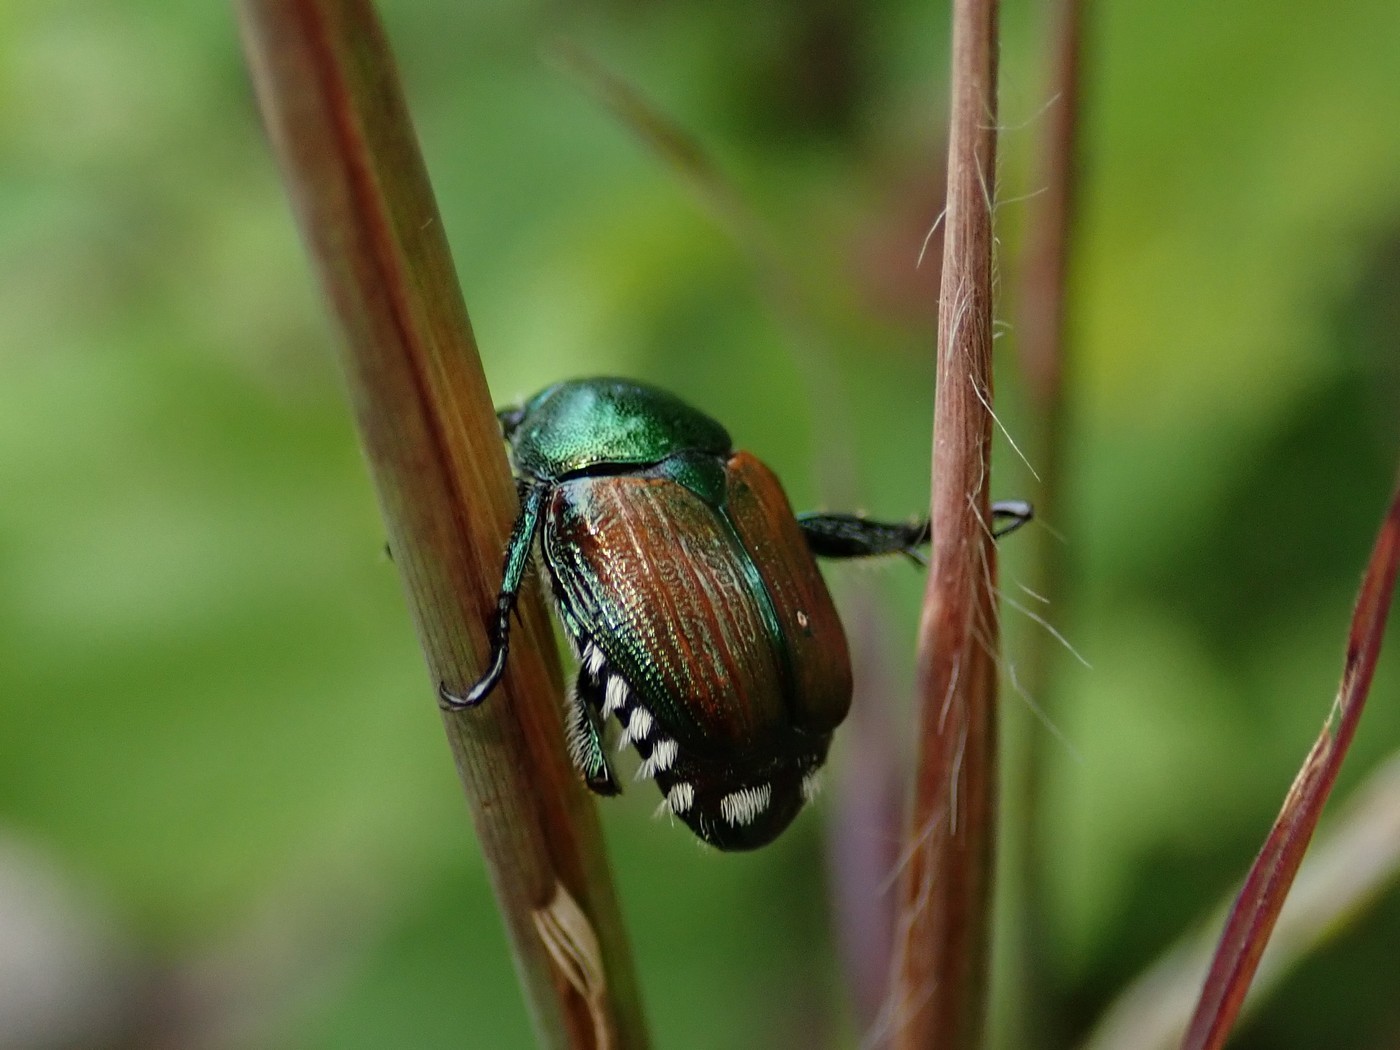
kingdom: Animalia
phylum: Arthropoda
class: Insecta
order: Coleoptera
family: Scarabaeidae
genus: Popillia
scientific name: Popillia japonica
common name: Japanese beetle
